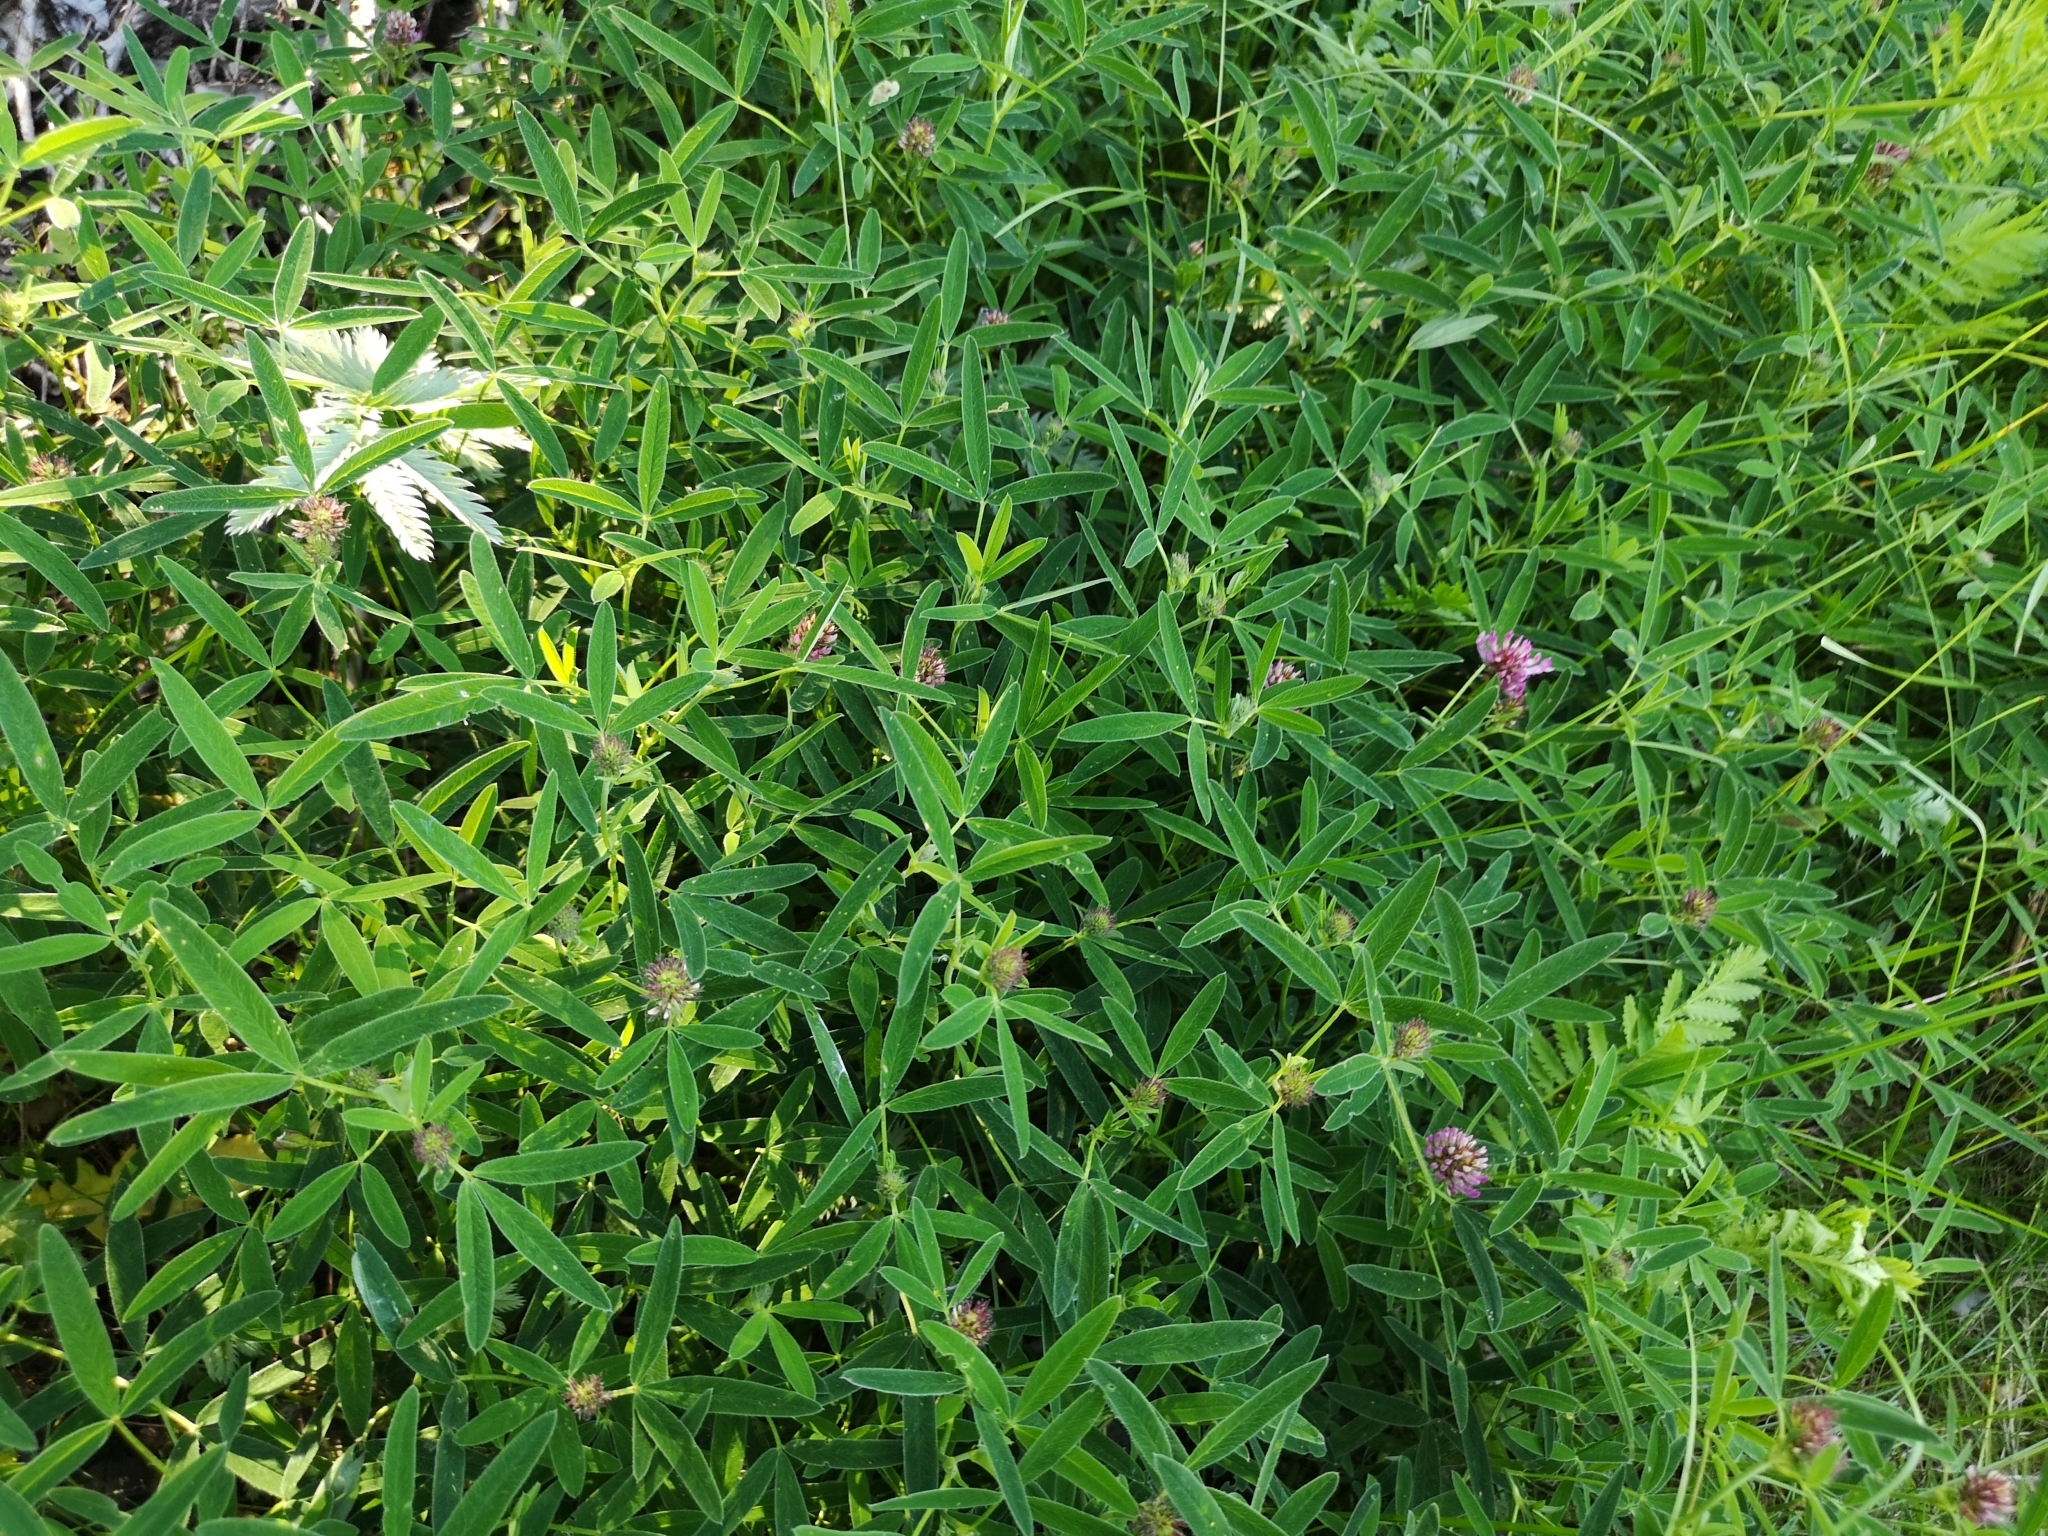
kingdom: Plantae
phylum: Tracheophyta
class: Magnoliopsida
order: Fabales
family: Fabaceae
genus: Trifolium
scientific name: Trifolium medium
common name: Zigzag clover
